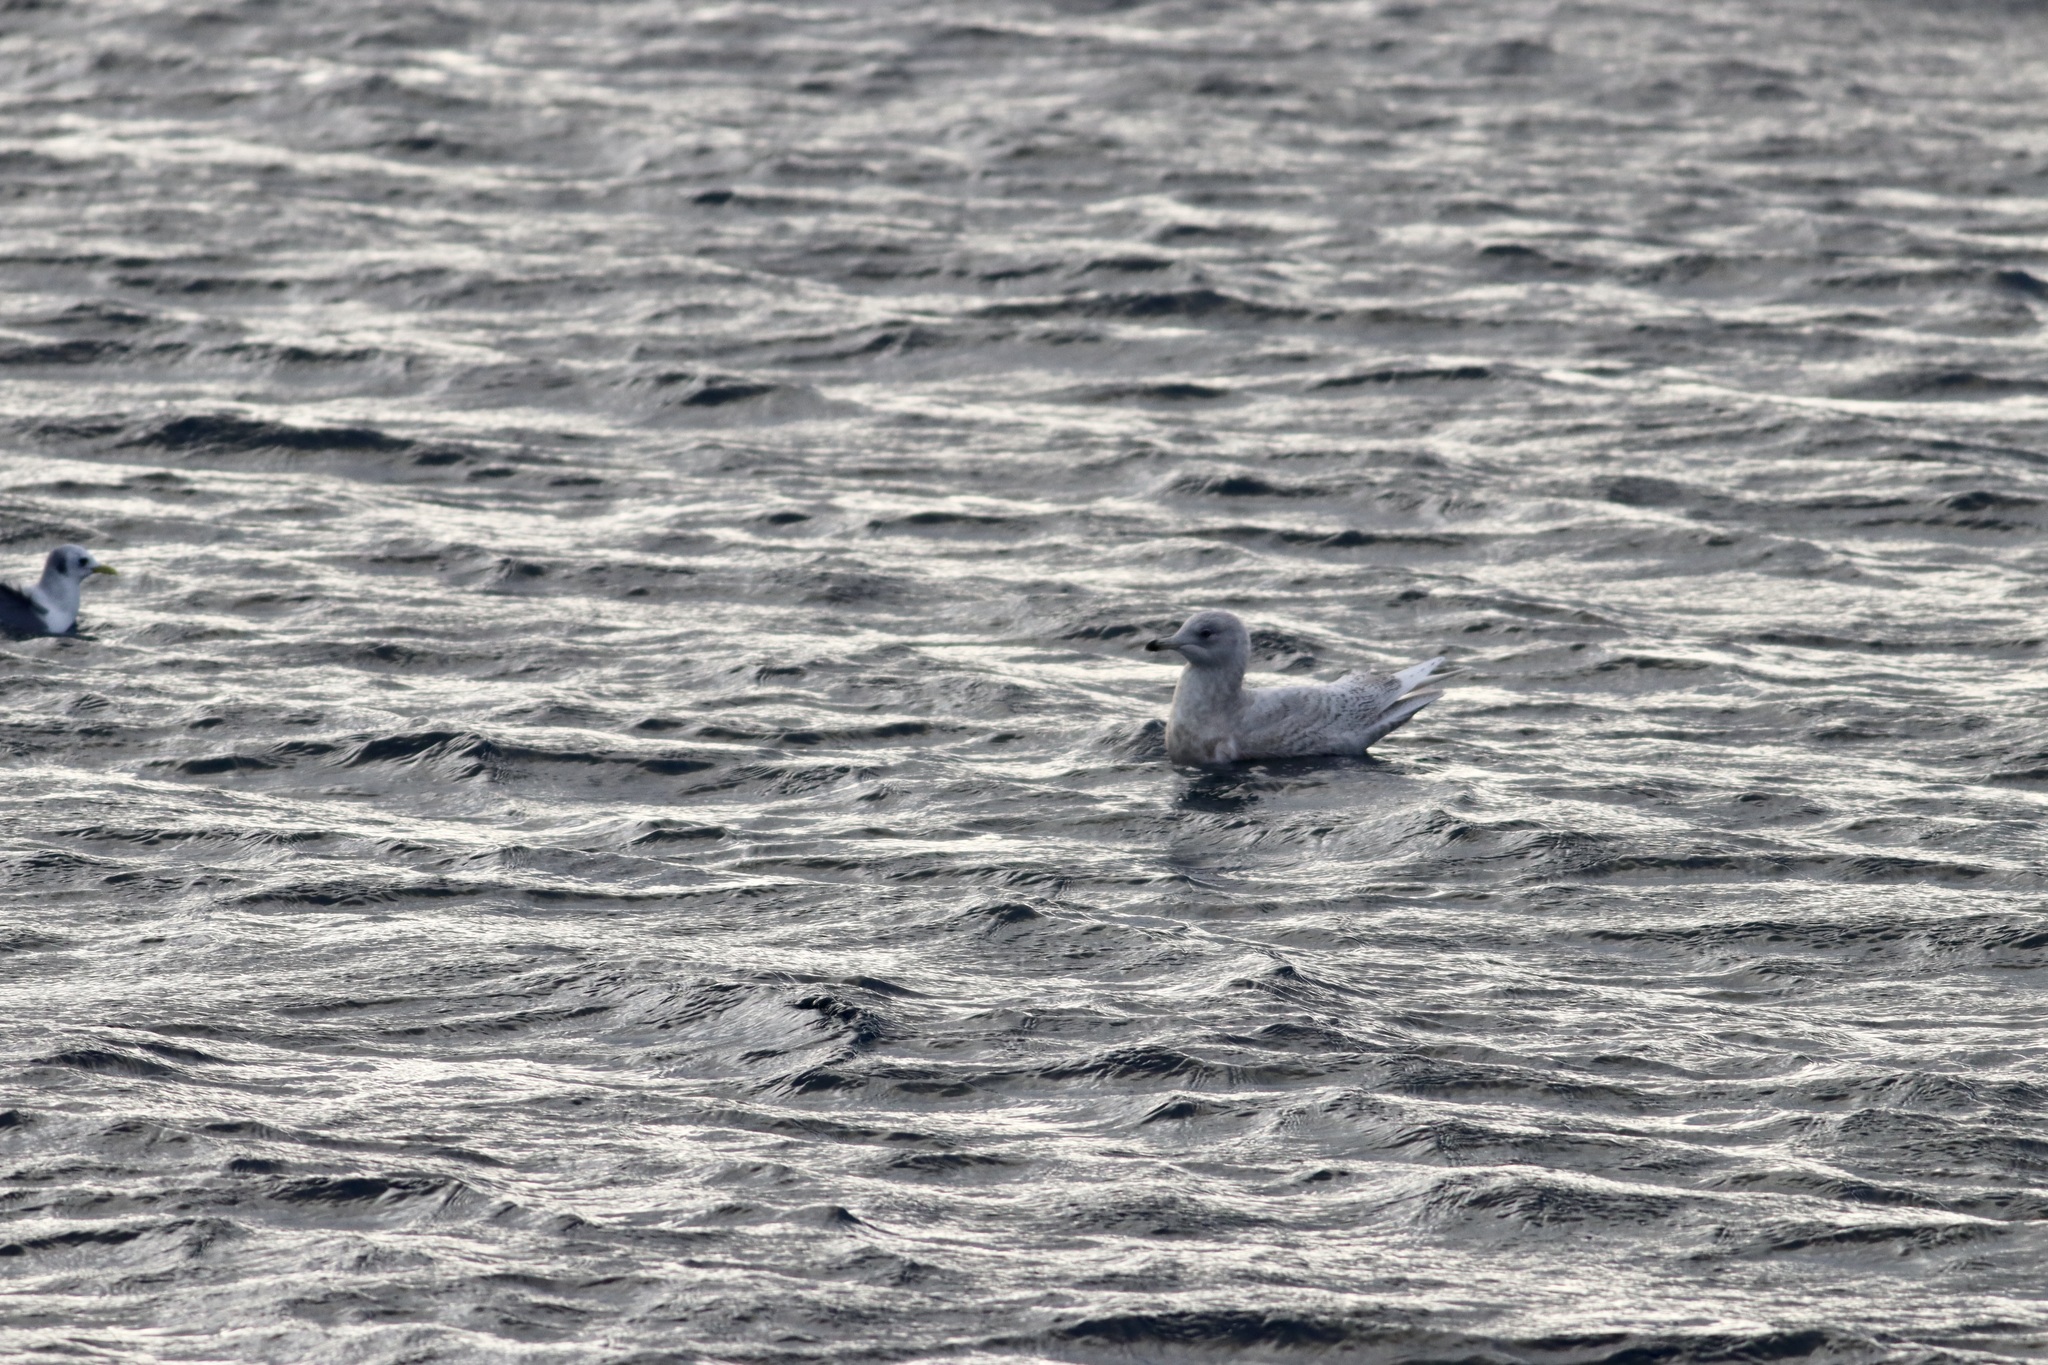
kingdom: Animalia
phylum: Chordata
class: Aves
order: Charadriiformes
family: Laridae
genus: Larus
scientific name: Larus glaucoides
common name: Iceland gull
